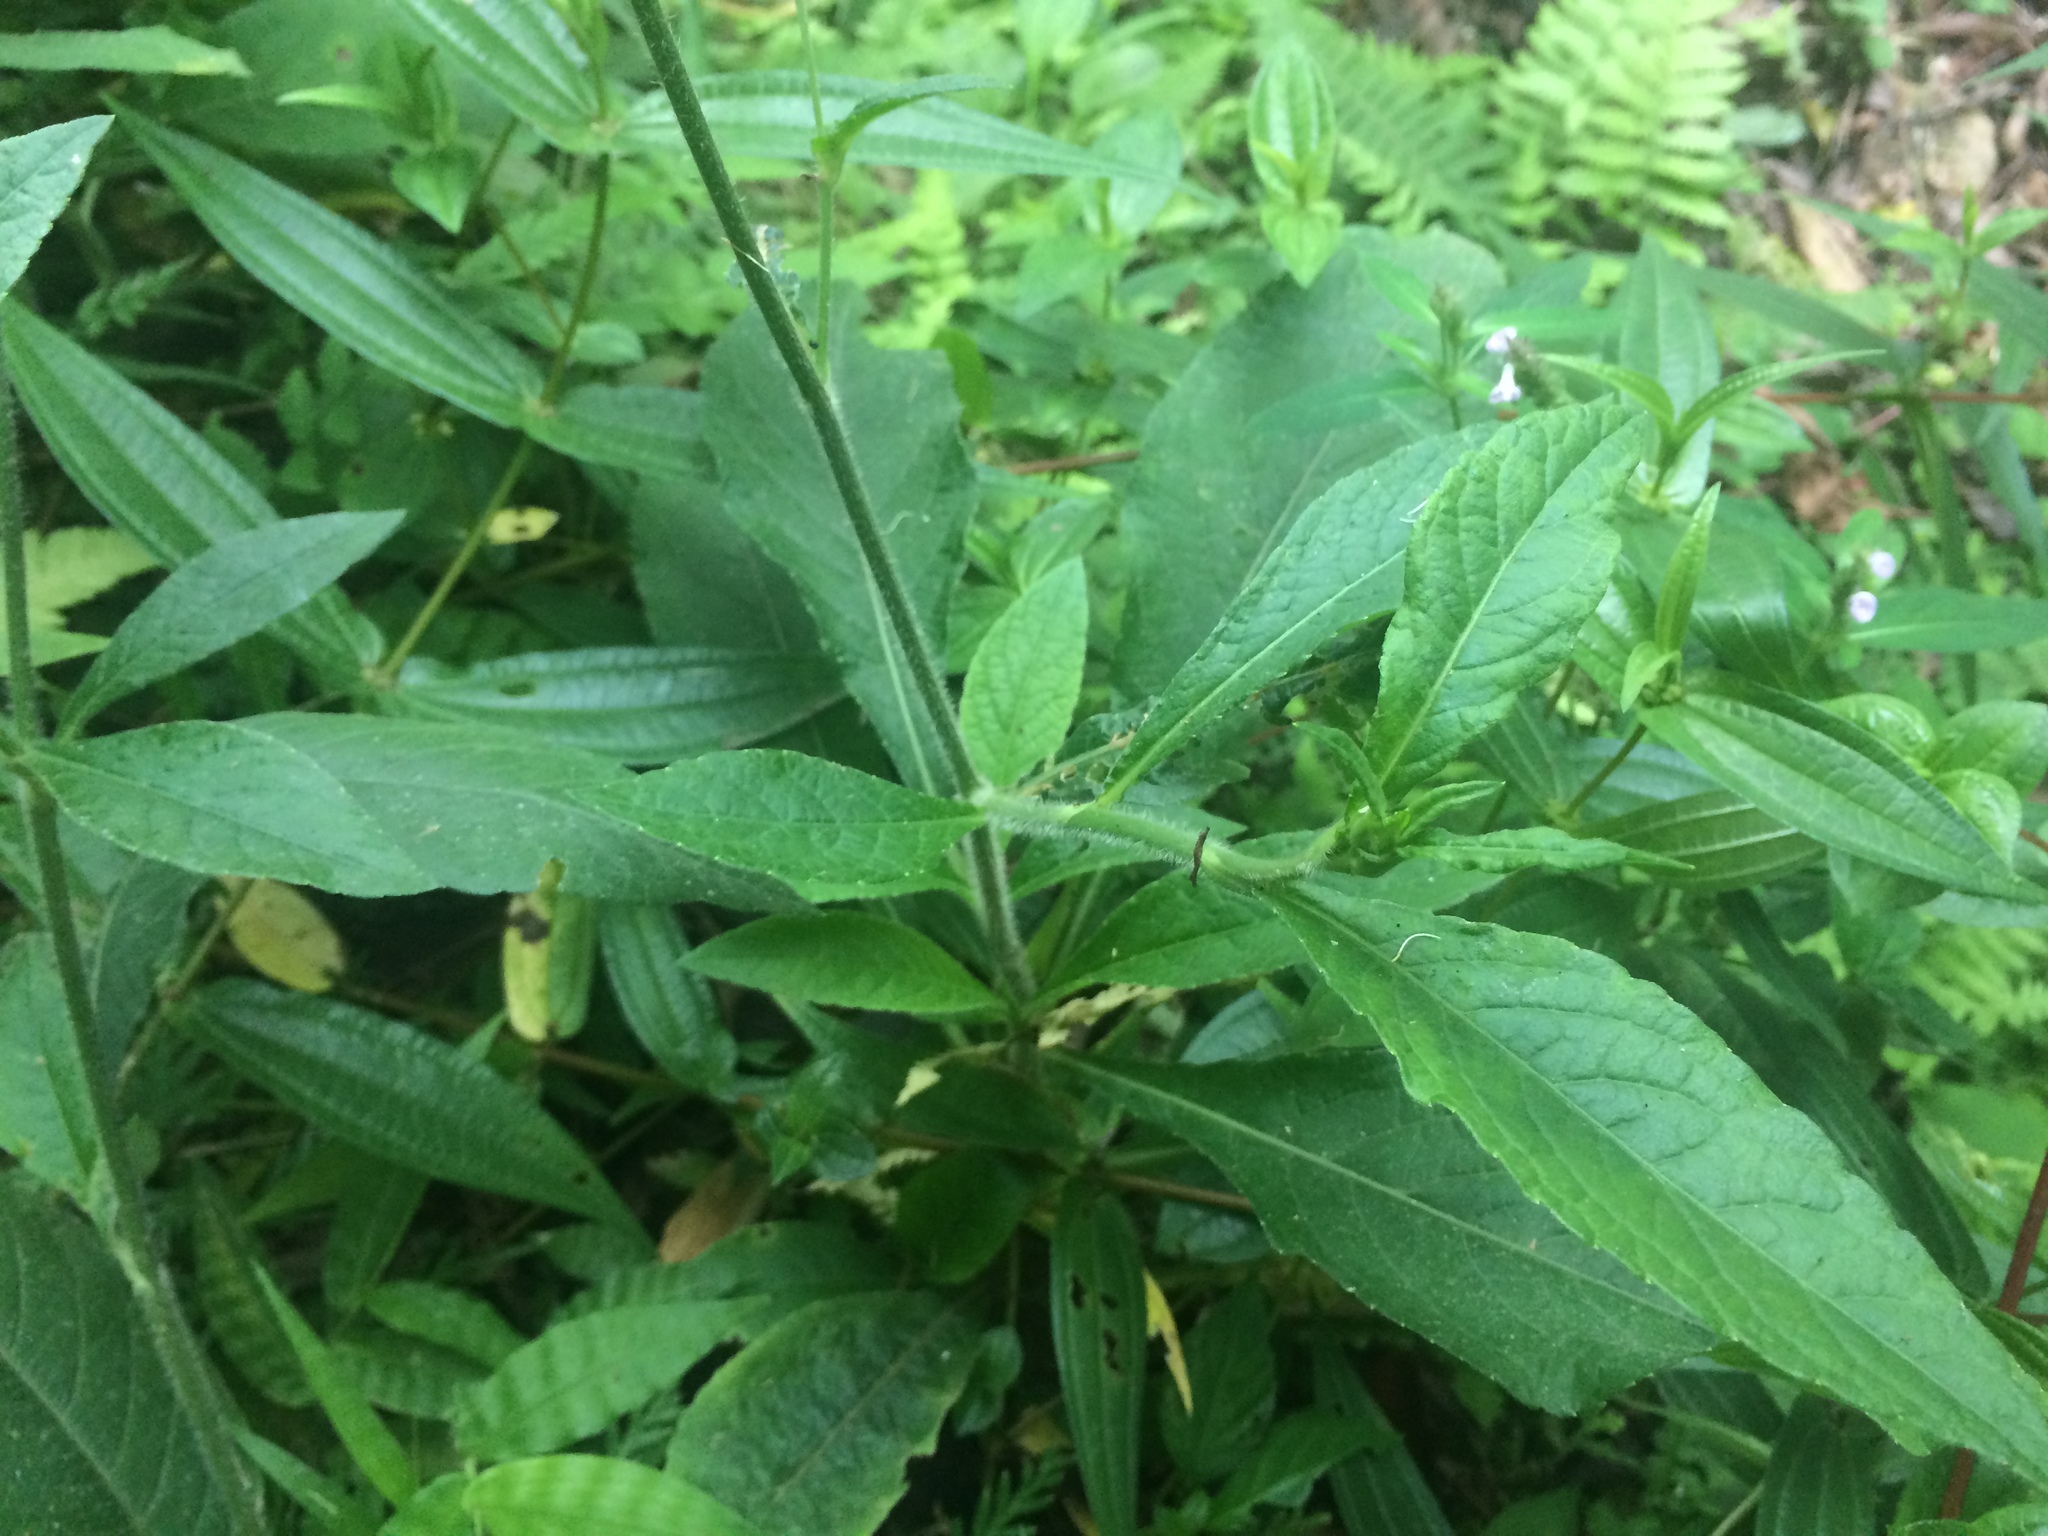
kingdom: Plantae
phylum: Tracheophyta
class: Magnoliopsida
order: Asterales
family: Asteraceae
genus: Elephantopus
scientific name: Elephantopus mollis
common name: Soft elephantsfoot
